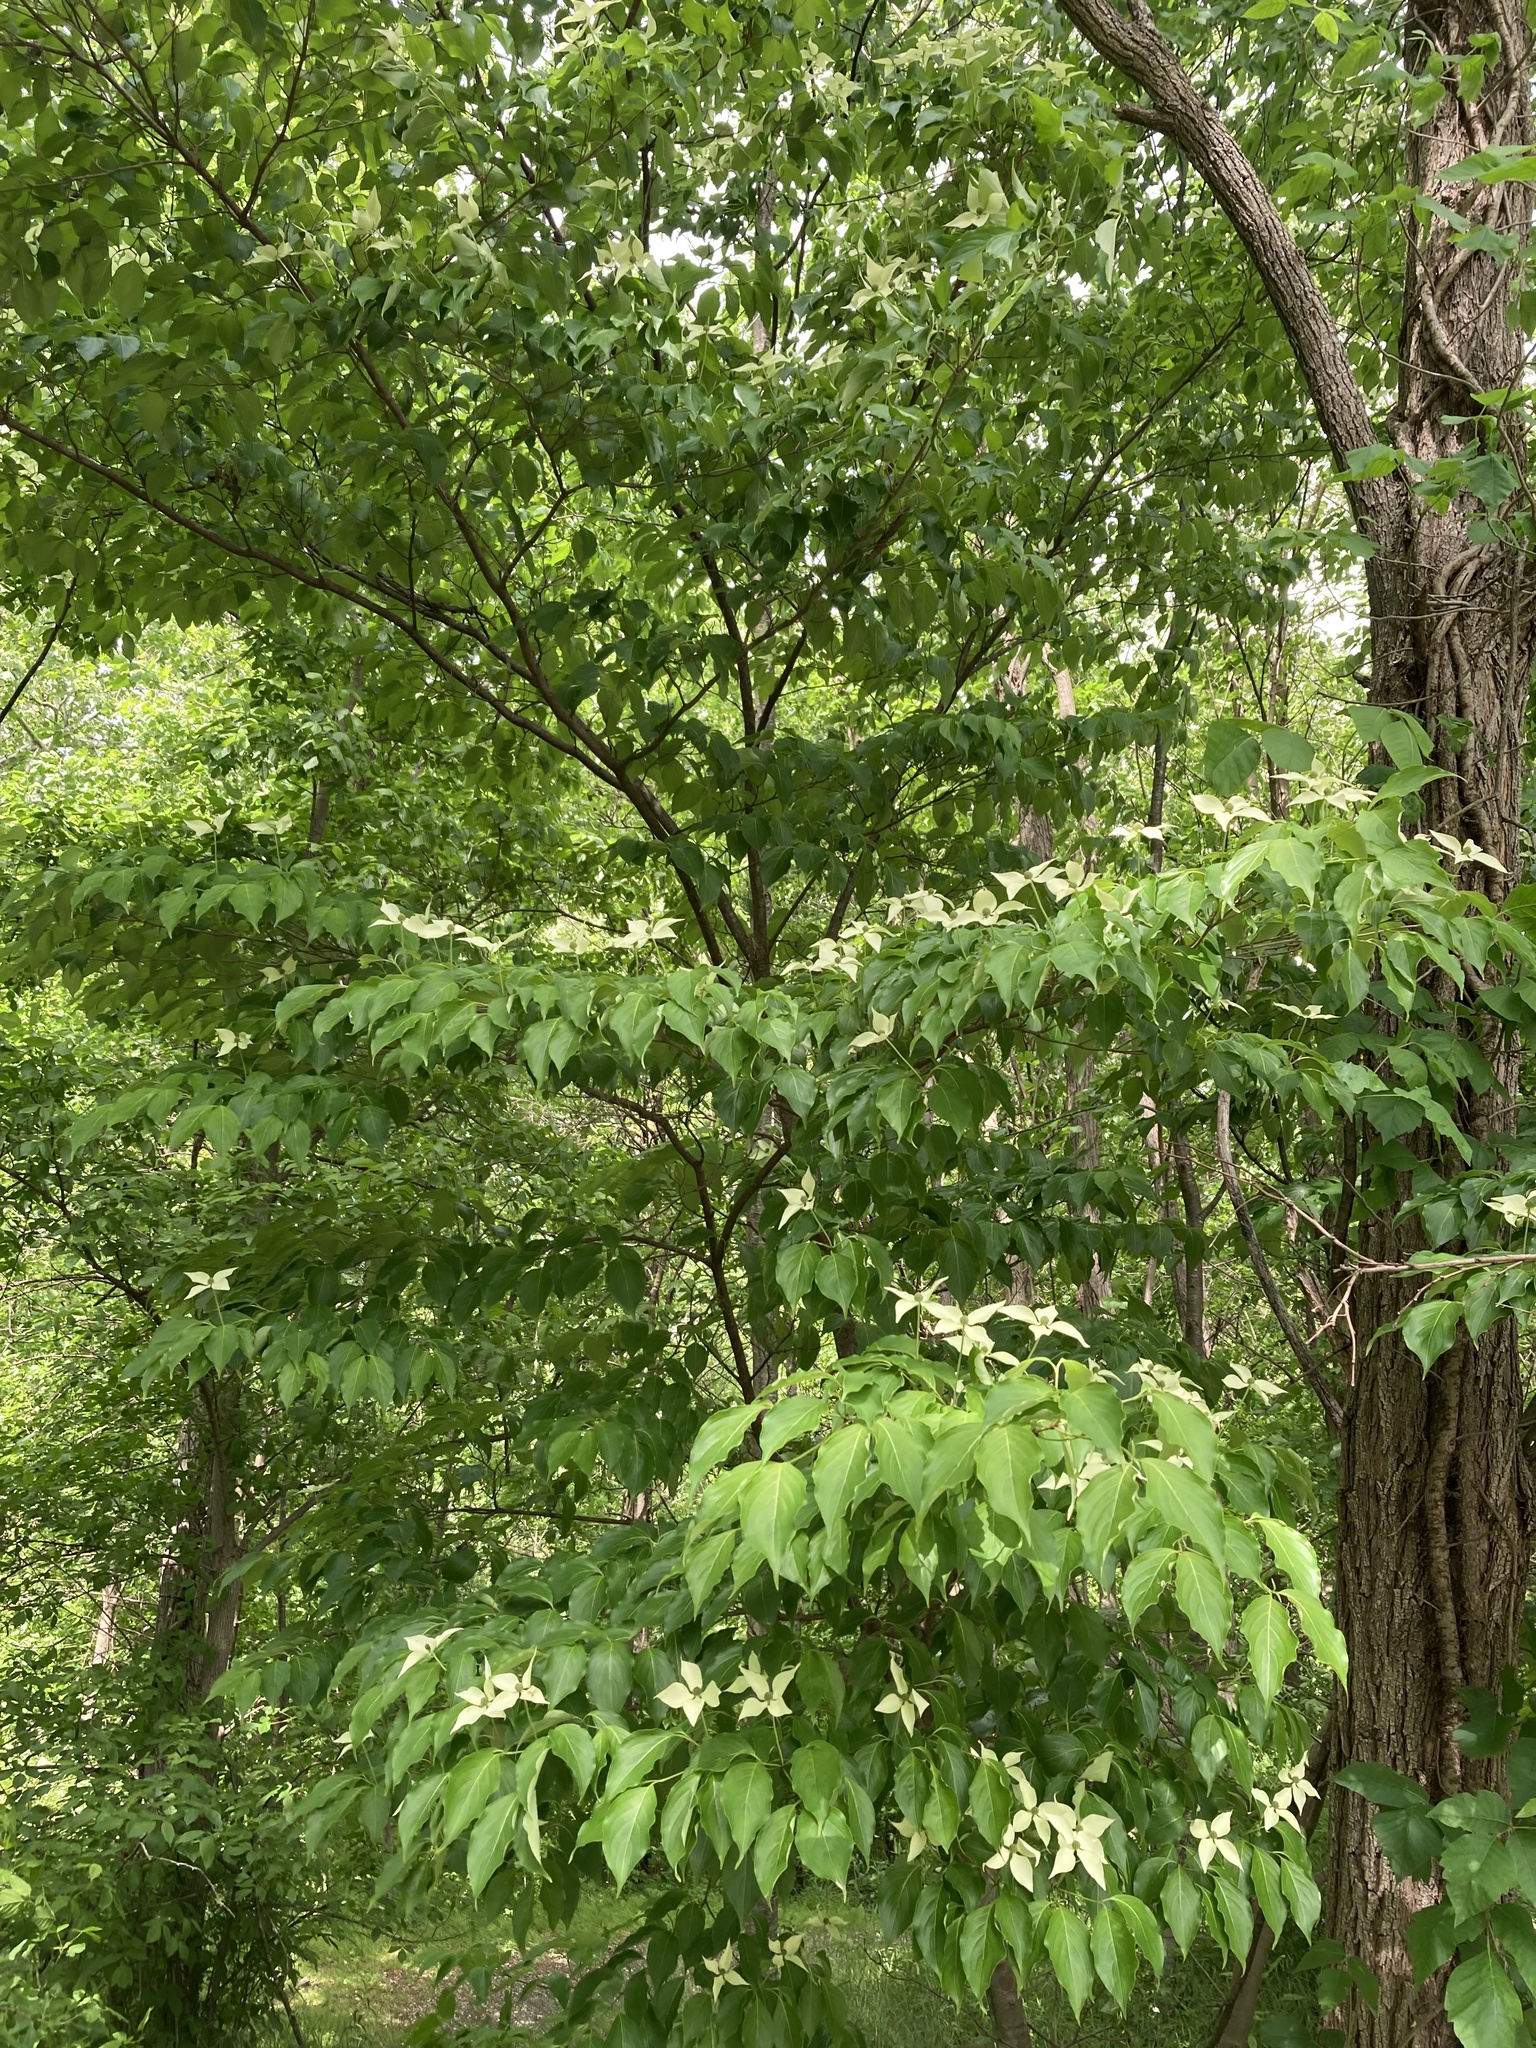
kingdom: Plantae
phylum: Tracheophyta
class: Magnoliopsida
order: Cornales
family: Cornaceae
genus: Cornus
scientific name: Cornus kousa
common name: Japanese dogwood
